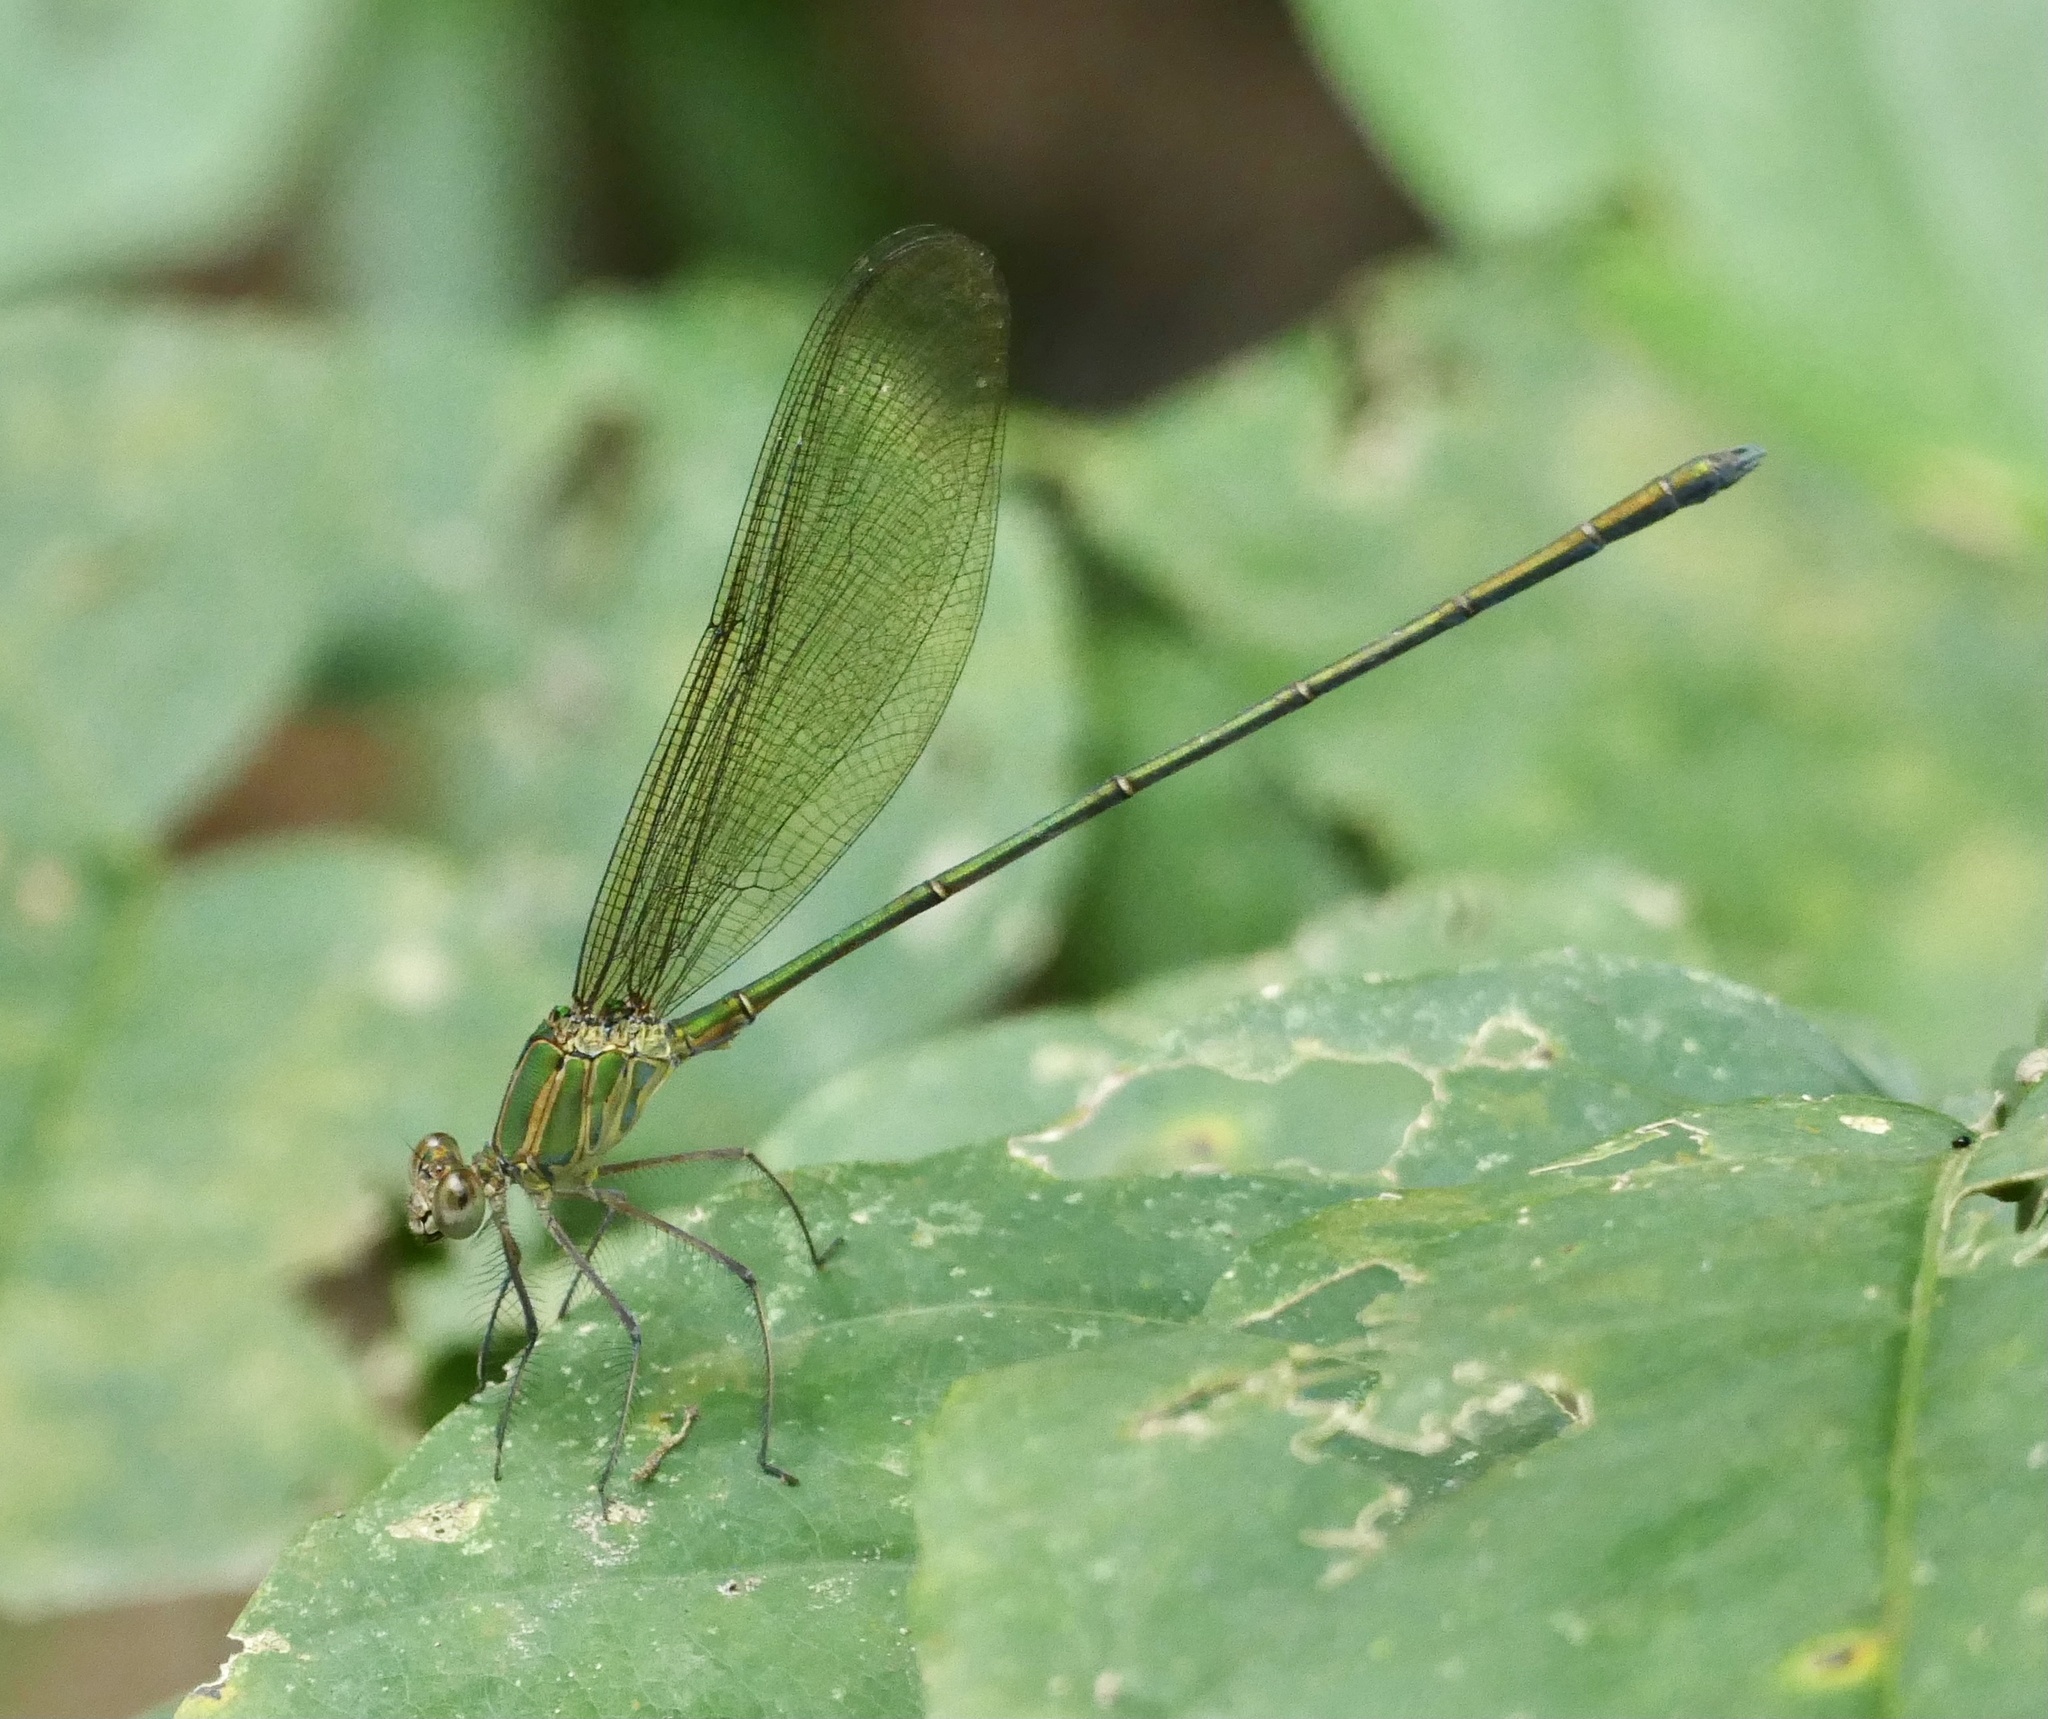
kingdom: Animalia
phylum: Arthropoda
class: Insecta
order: Odonata
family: Calopterygidae
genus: Phaon
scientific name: Phaon iridipennis
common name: Glistening demoiselle
